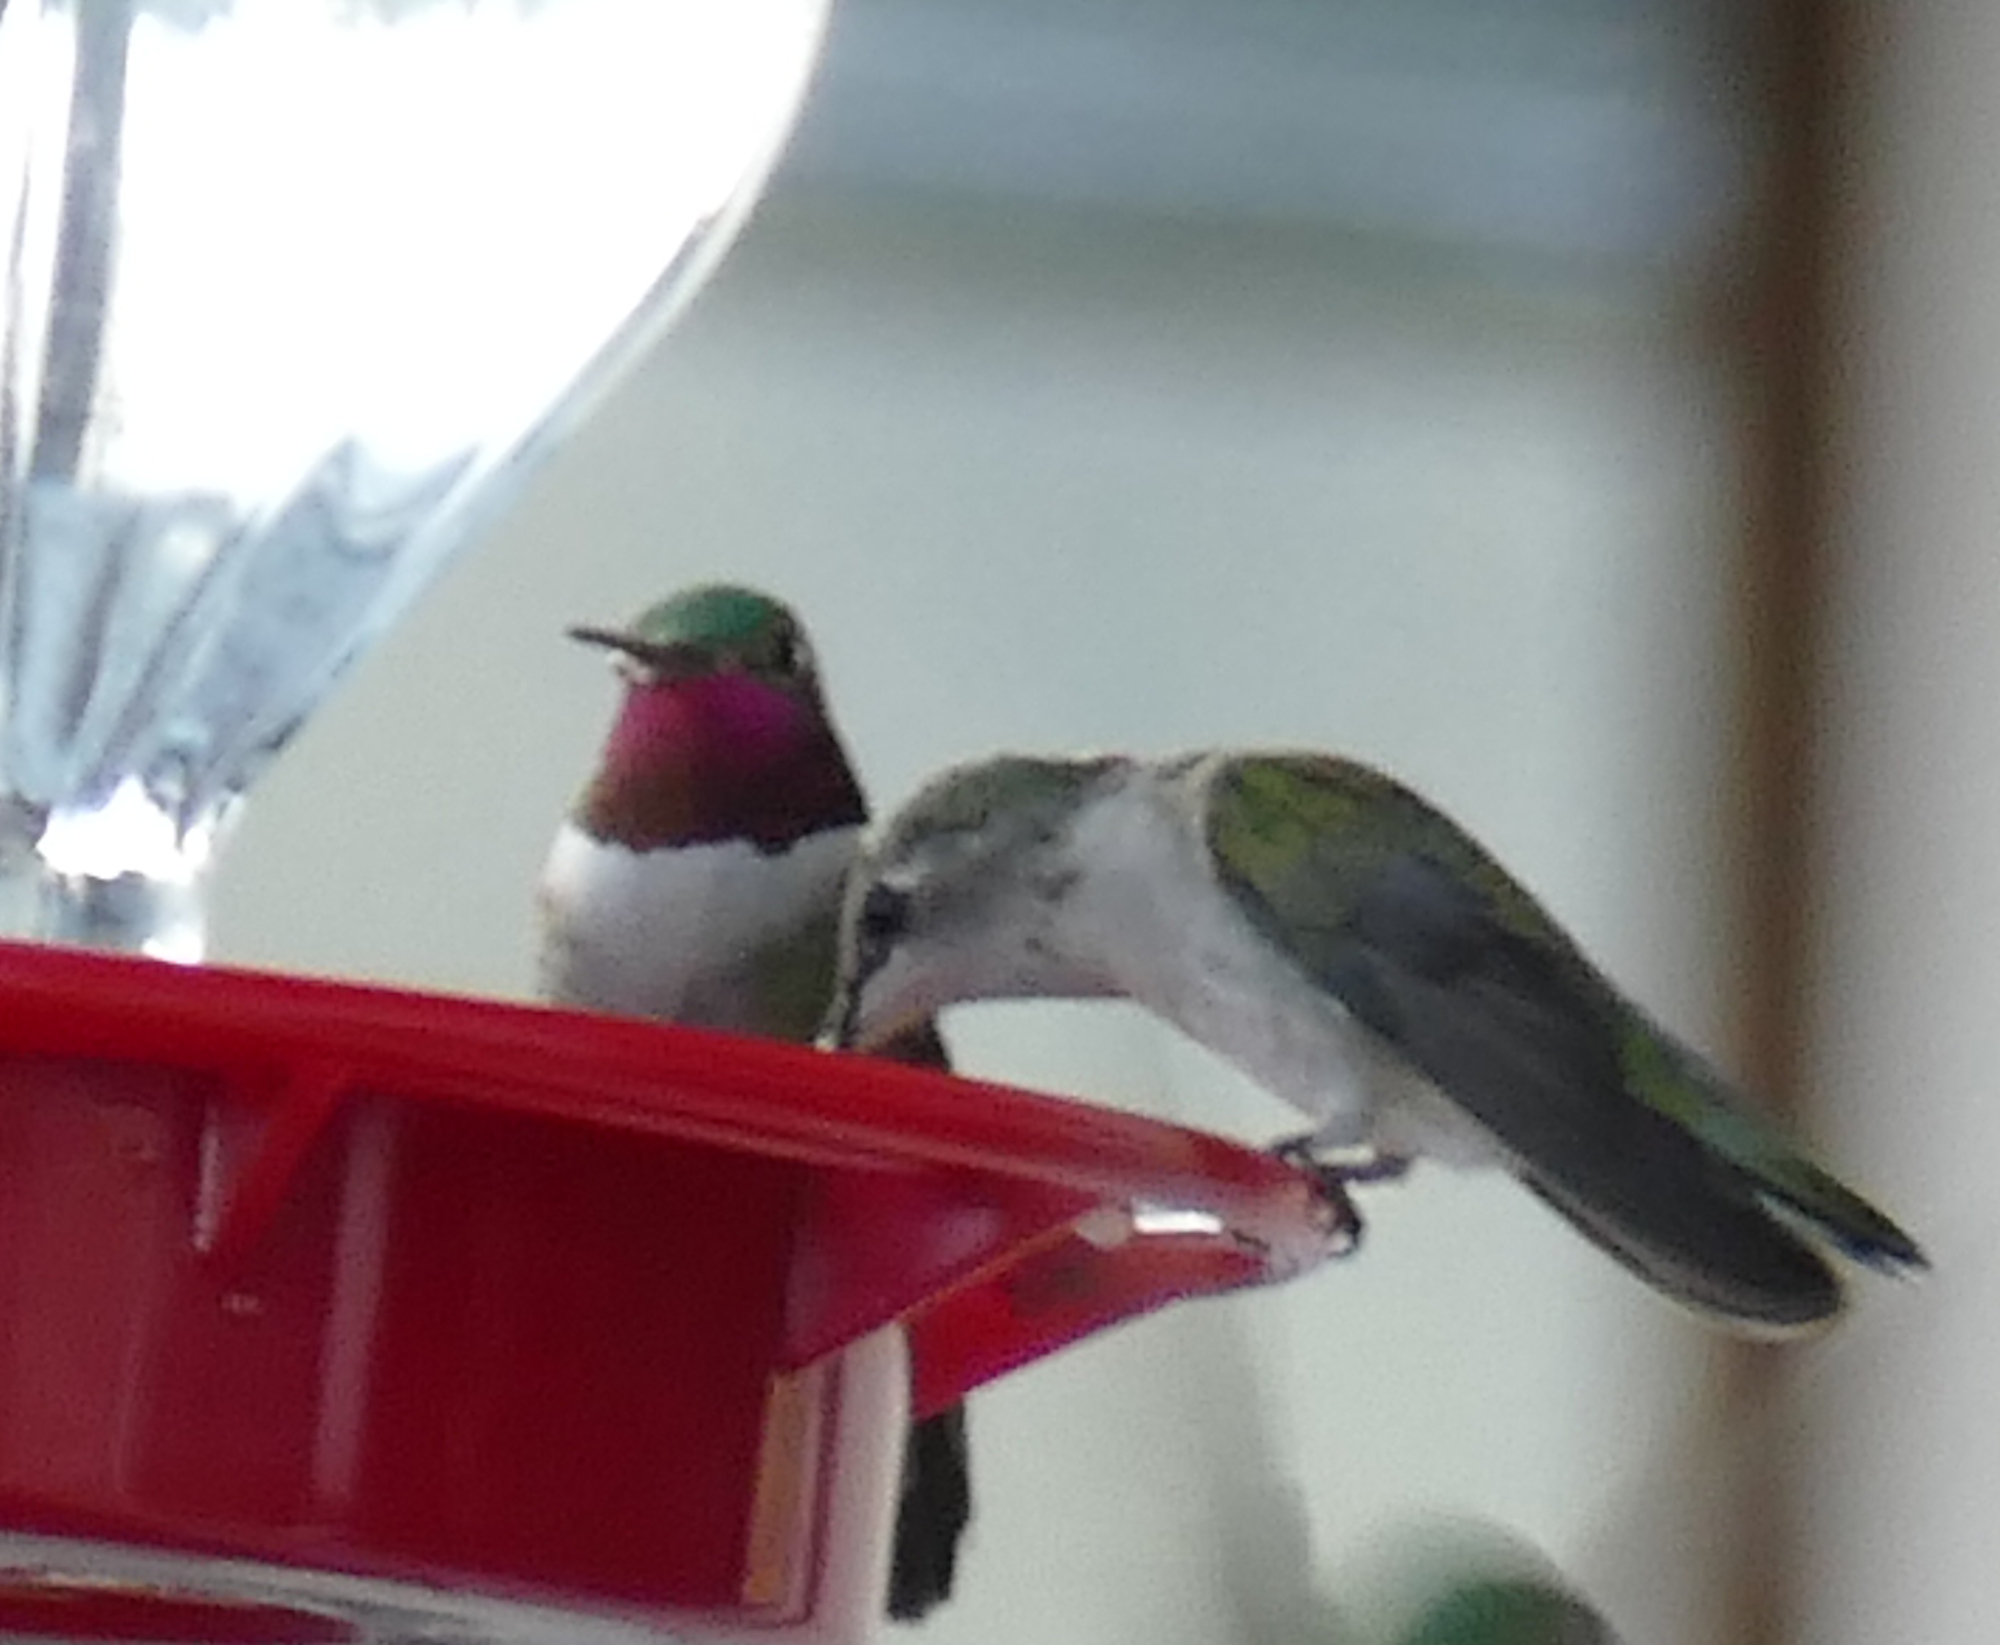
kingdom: Animalia
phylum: Chordata
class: Aves
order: Apodiformes
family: Trochilidae
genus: Selasphorus
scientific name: Selasphorus platycercus
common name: Broad-tailed hummingbird
